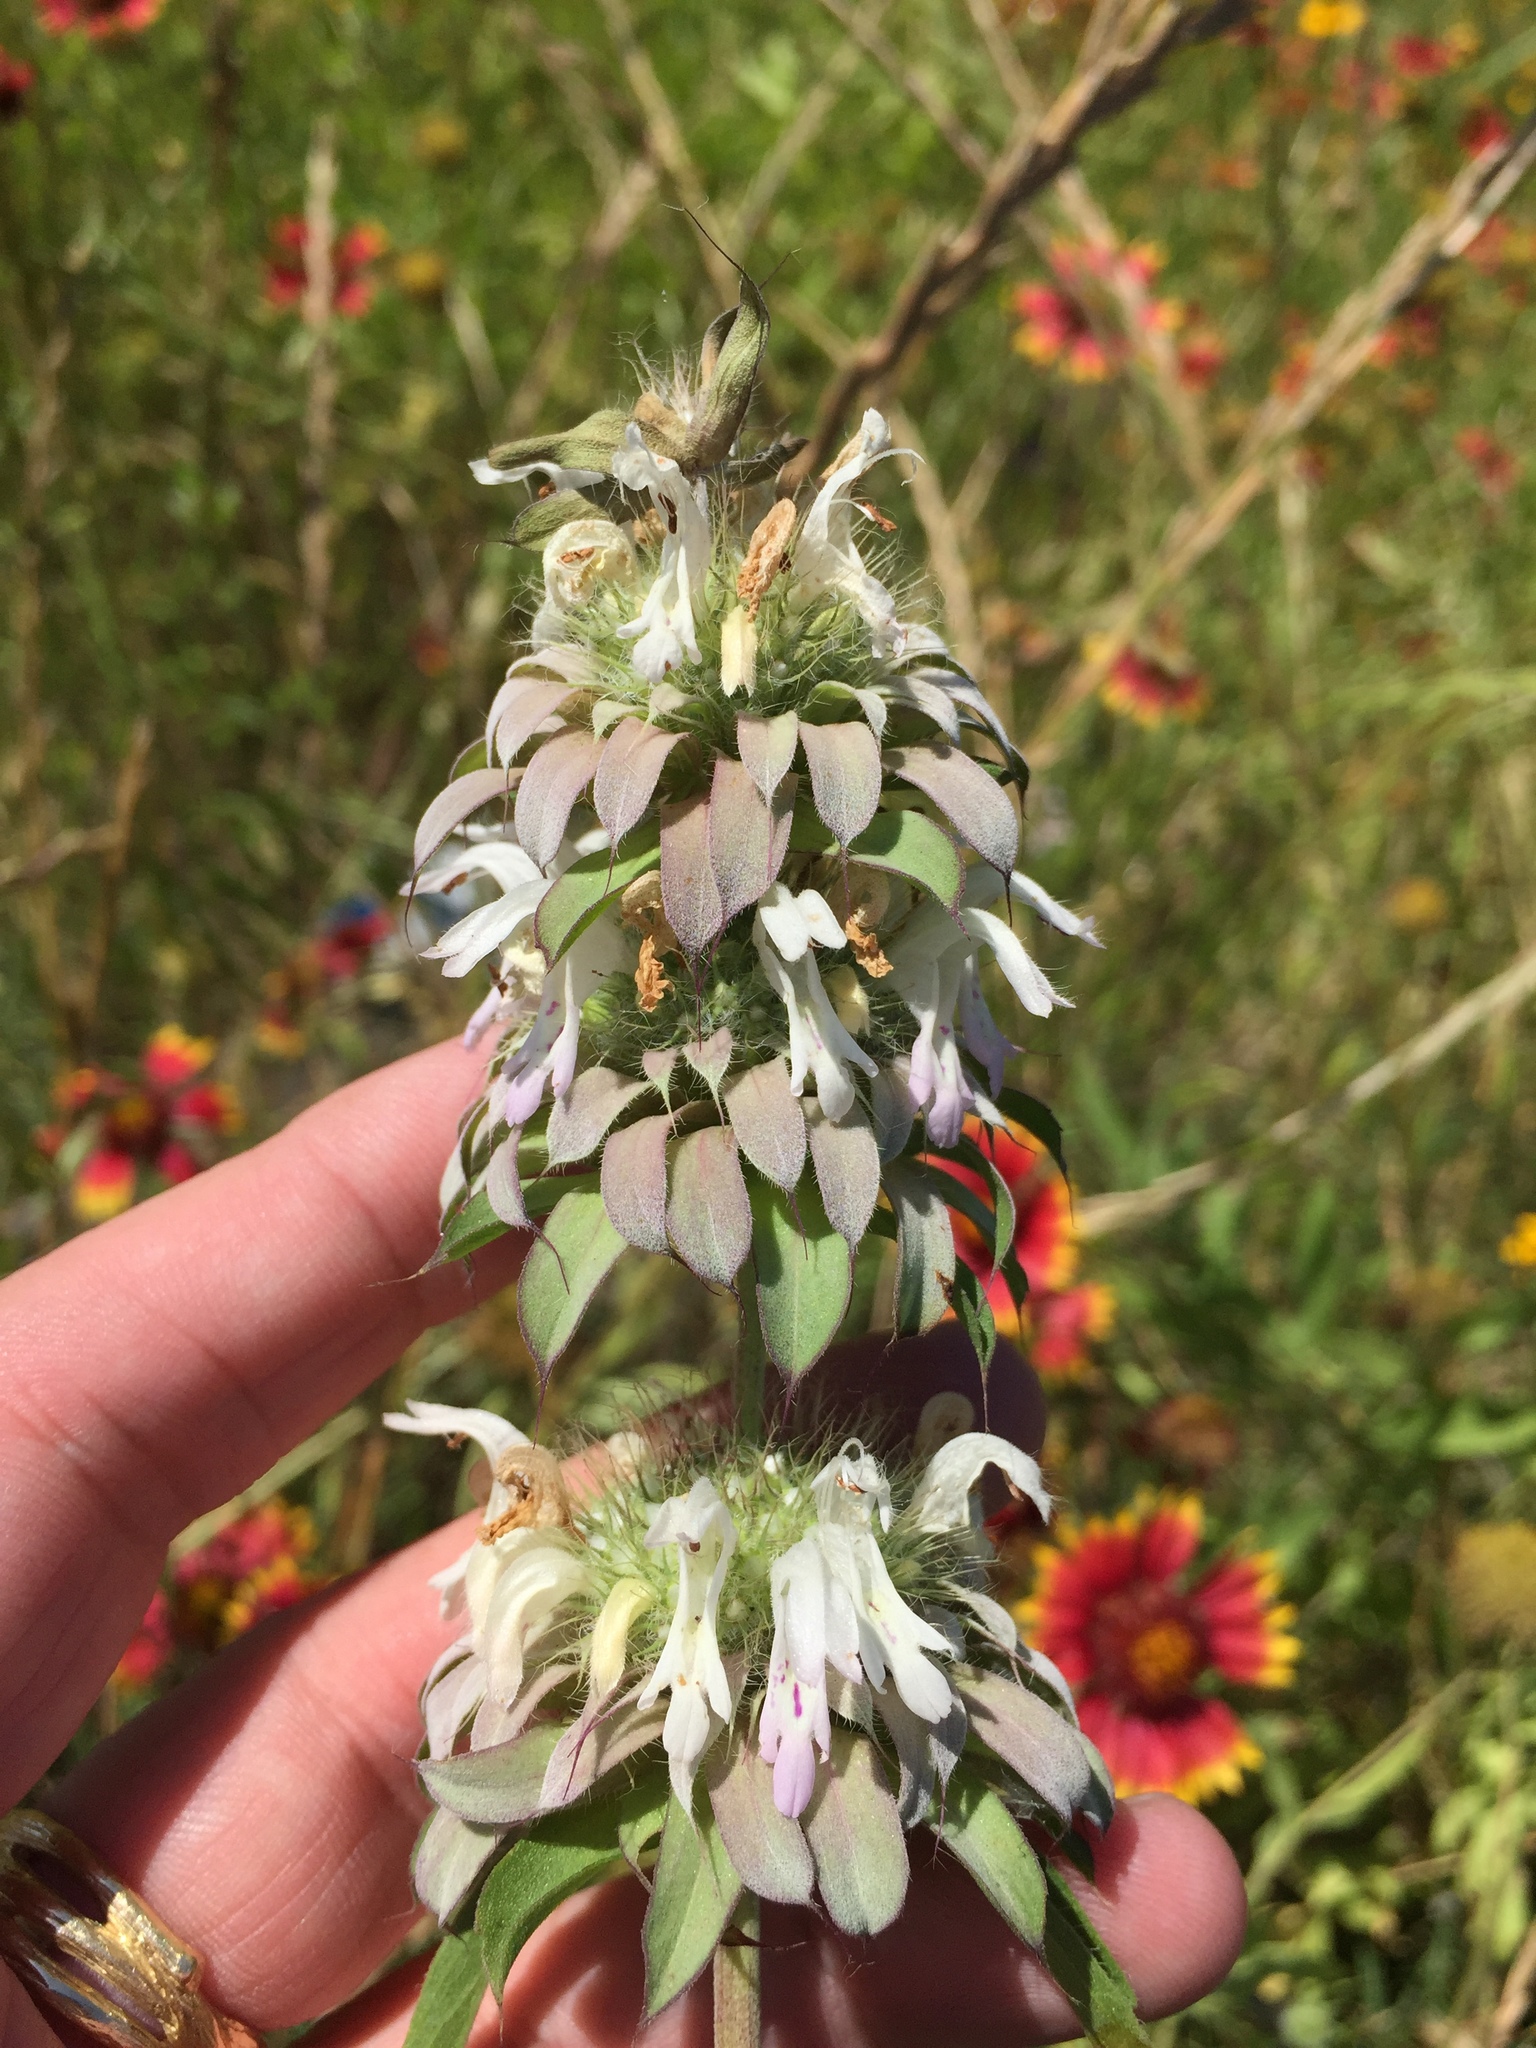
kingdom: Plantae
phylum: Tracheophyta
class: Magnoliopsida
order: Lamiales
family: Lamiaceae
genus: Monarda
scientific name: Monarda citriodora
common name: Lemon beebalm
